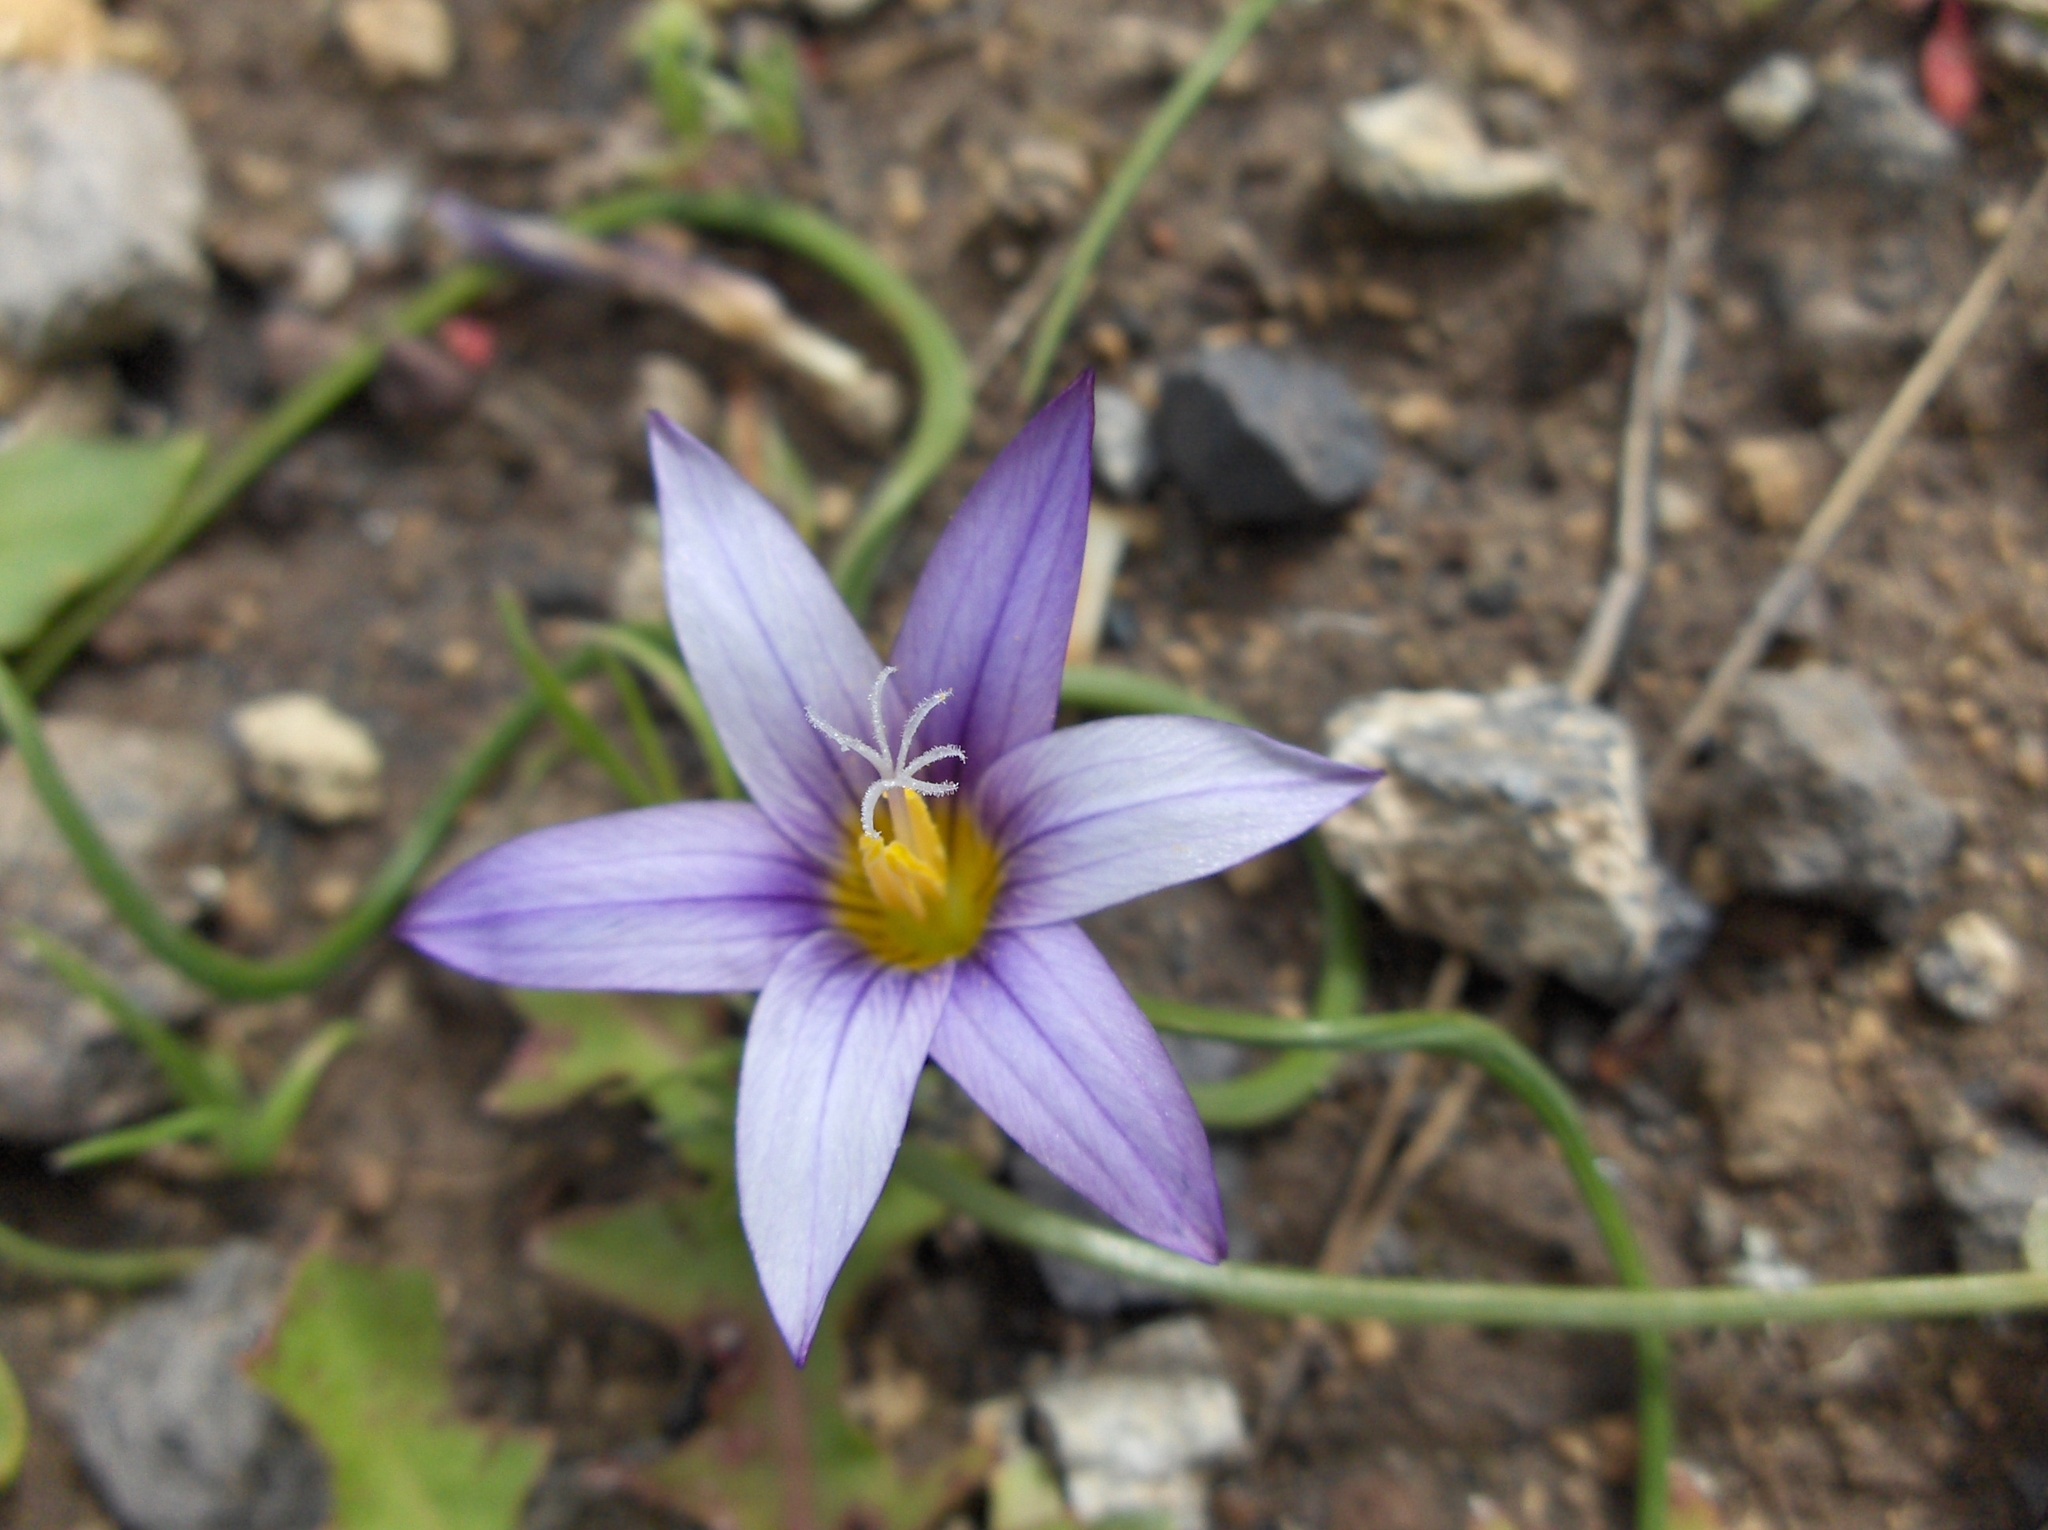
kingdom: Plantae
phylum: Tracheophyta
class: Liliopsida
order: Asparagales
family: Iridaceae
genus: Romulea
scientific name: Romulea columnae
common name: Sand-crocus
